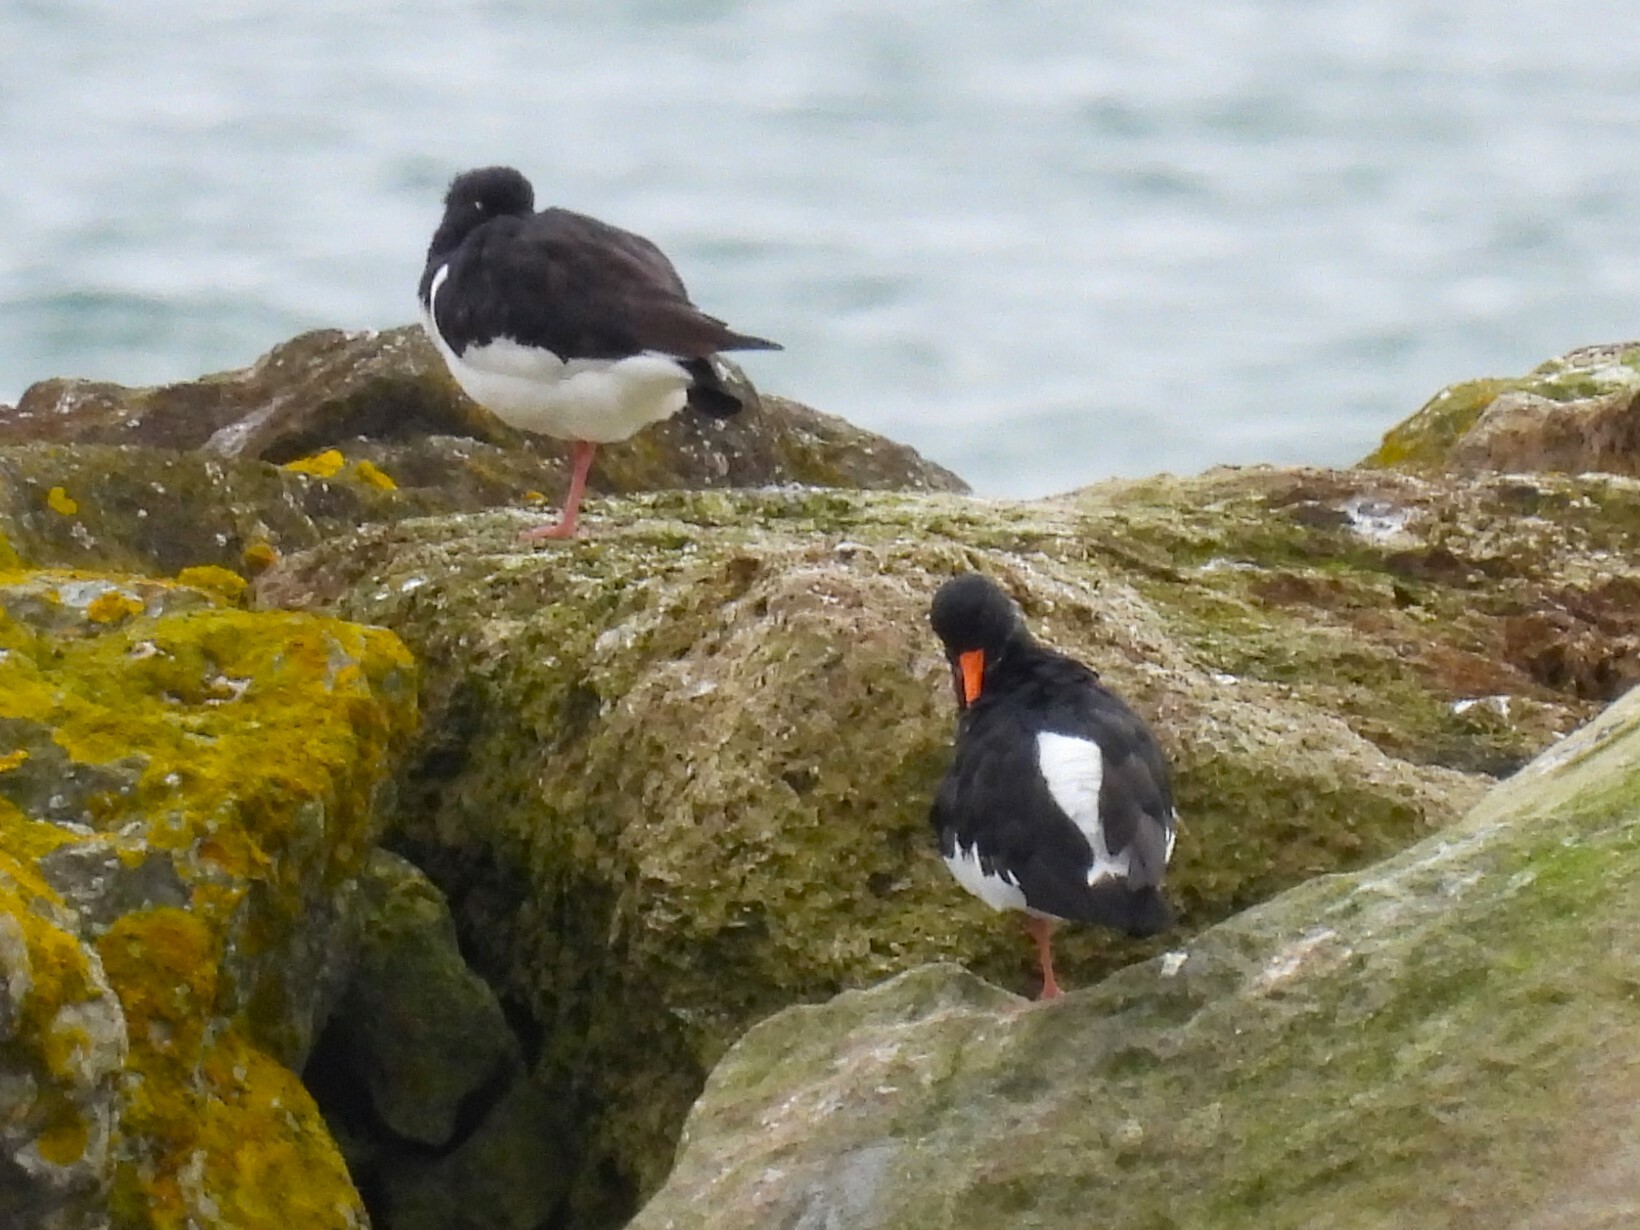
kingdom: Animalia
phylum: Chordata
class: Aves
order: Charadriiformes
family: Haematopodidae
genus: Haematopus
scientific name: Haematopus ostralegus
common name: Eurasian oystercatcher
